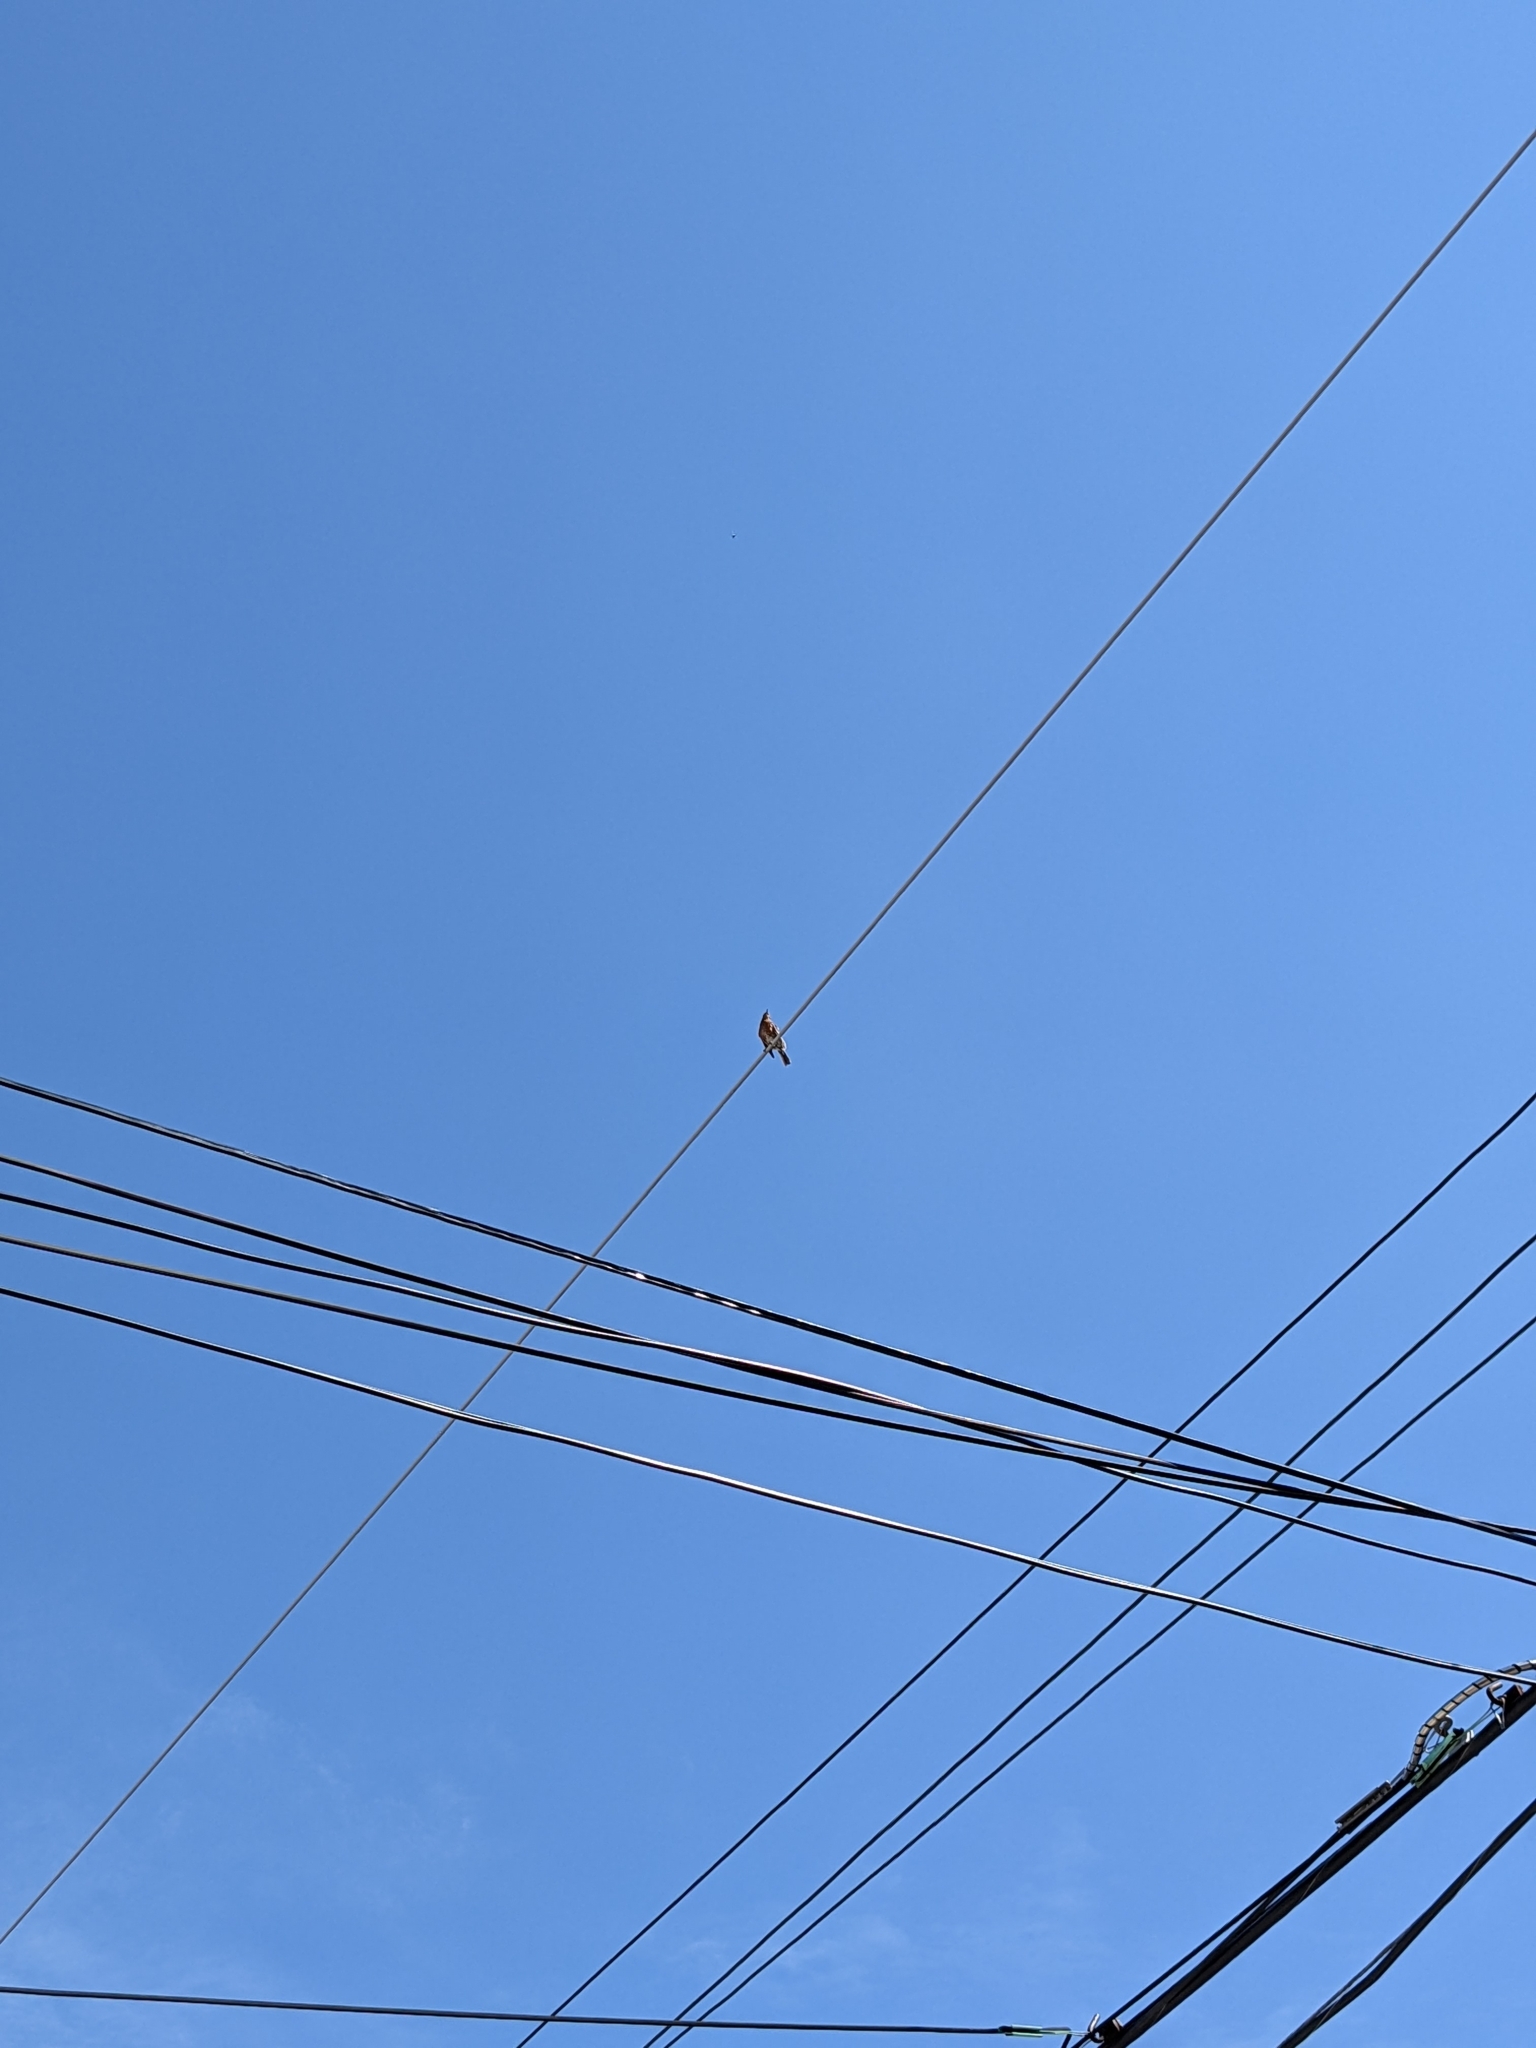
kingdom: Animalia
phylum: Chordata
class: Aves
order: Passeriformes
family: Turdidae
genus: Turdus
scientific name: Turdus migratorius
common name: American robin
